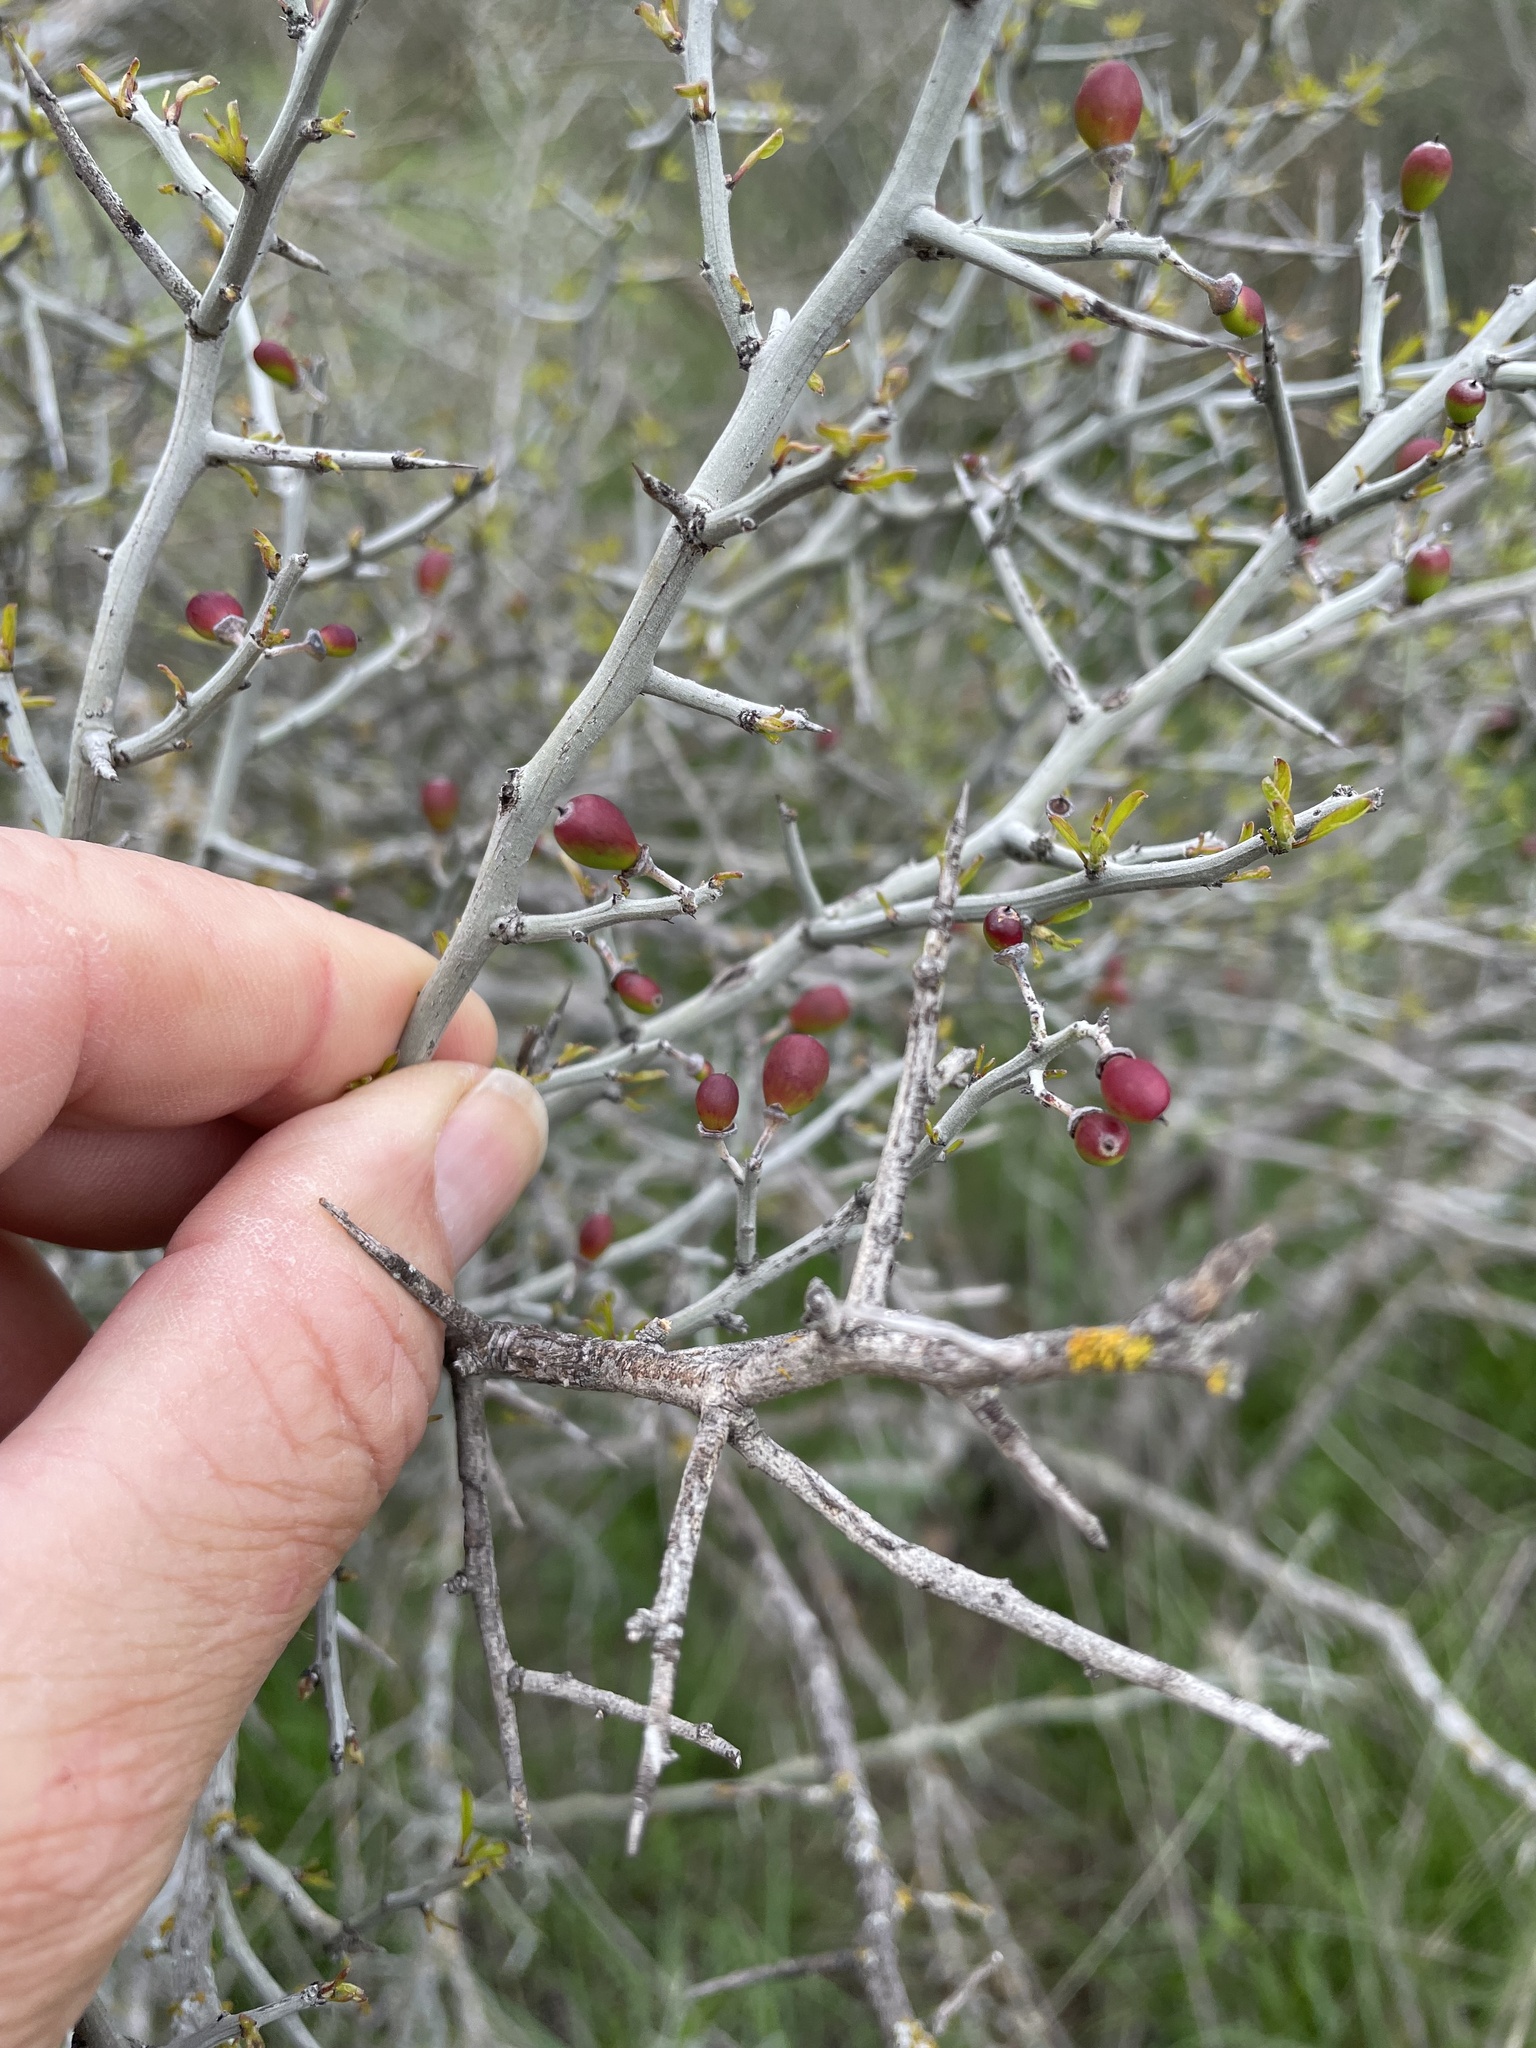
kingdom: Plantae
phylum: Tracheophyta
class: Magnoliopsida
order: Rosales
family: Rhamnaceae
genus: Sarcomphalus
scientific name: Sarcomphalus obtusifolius
